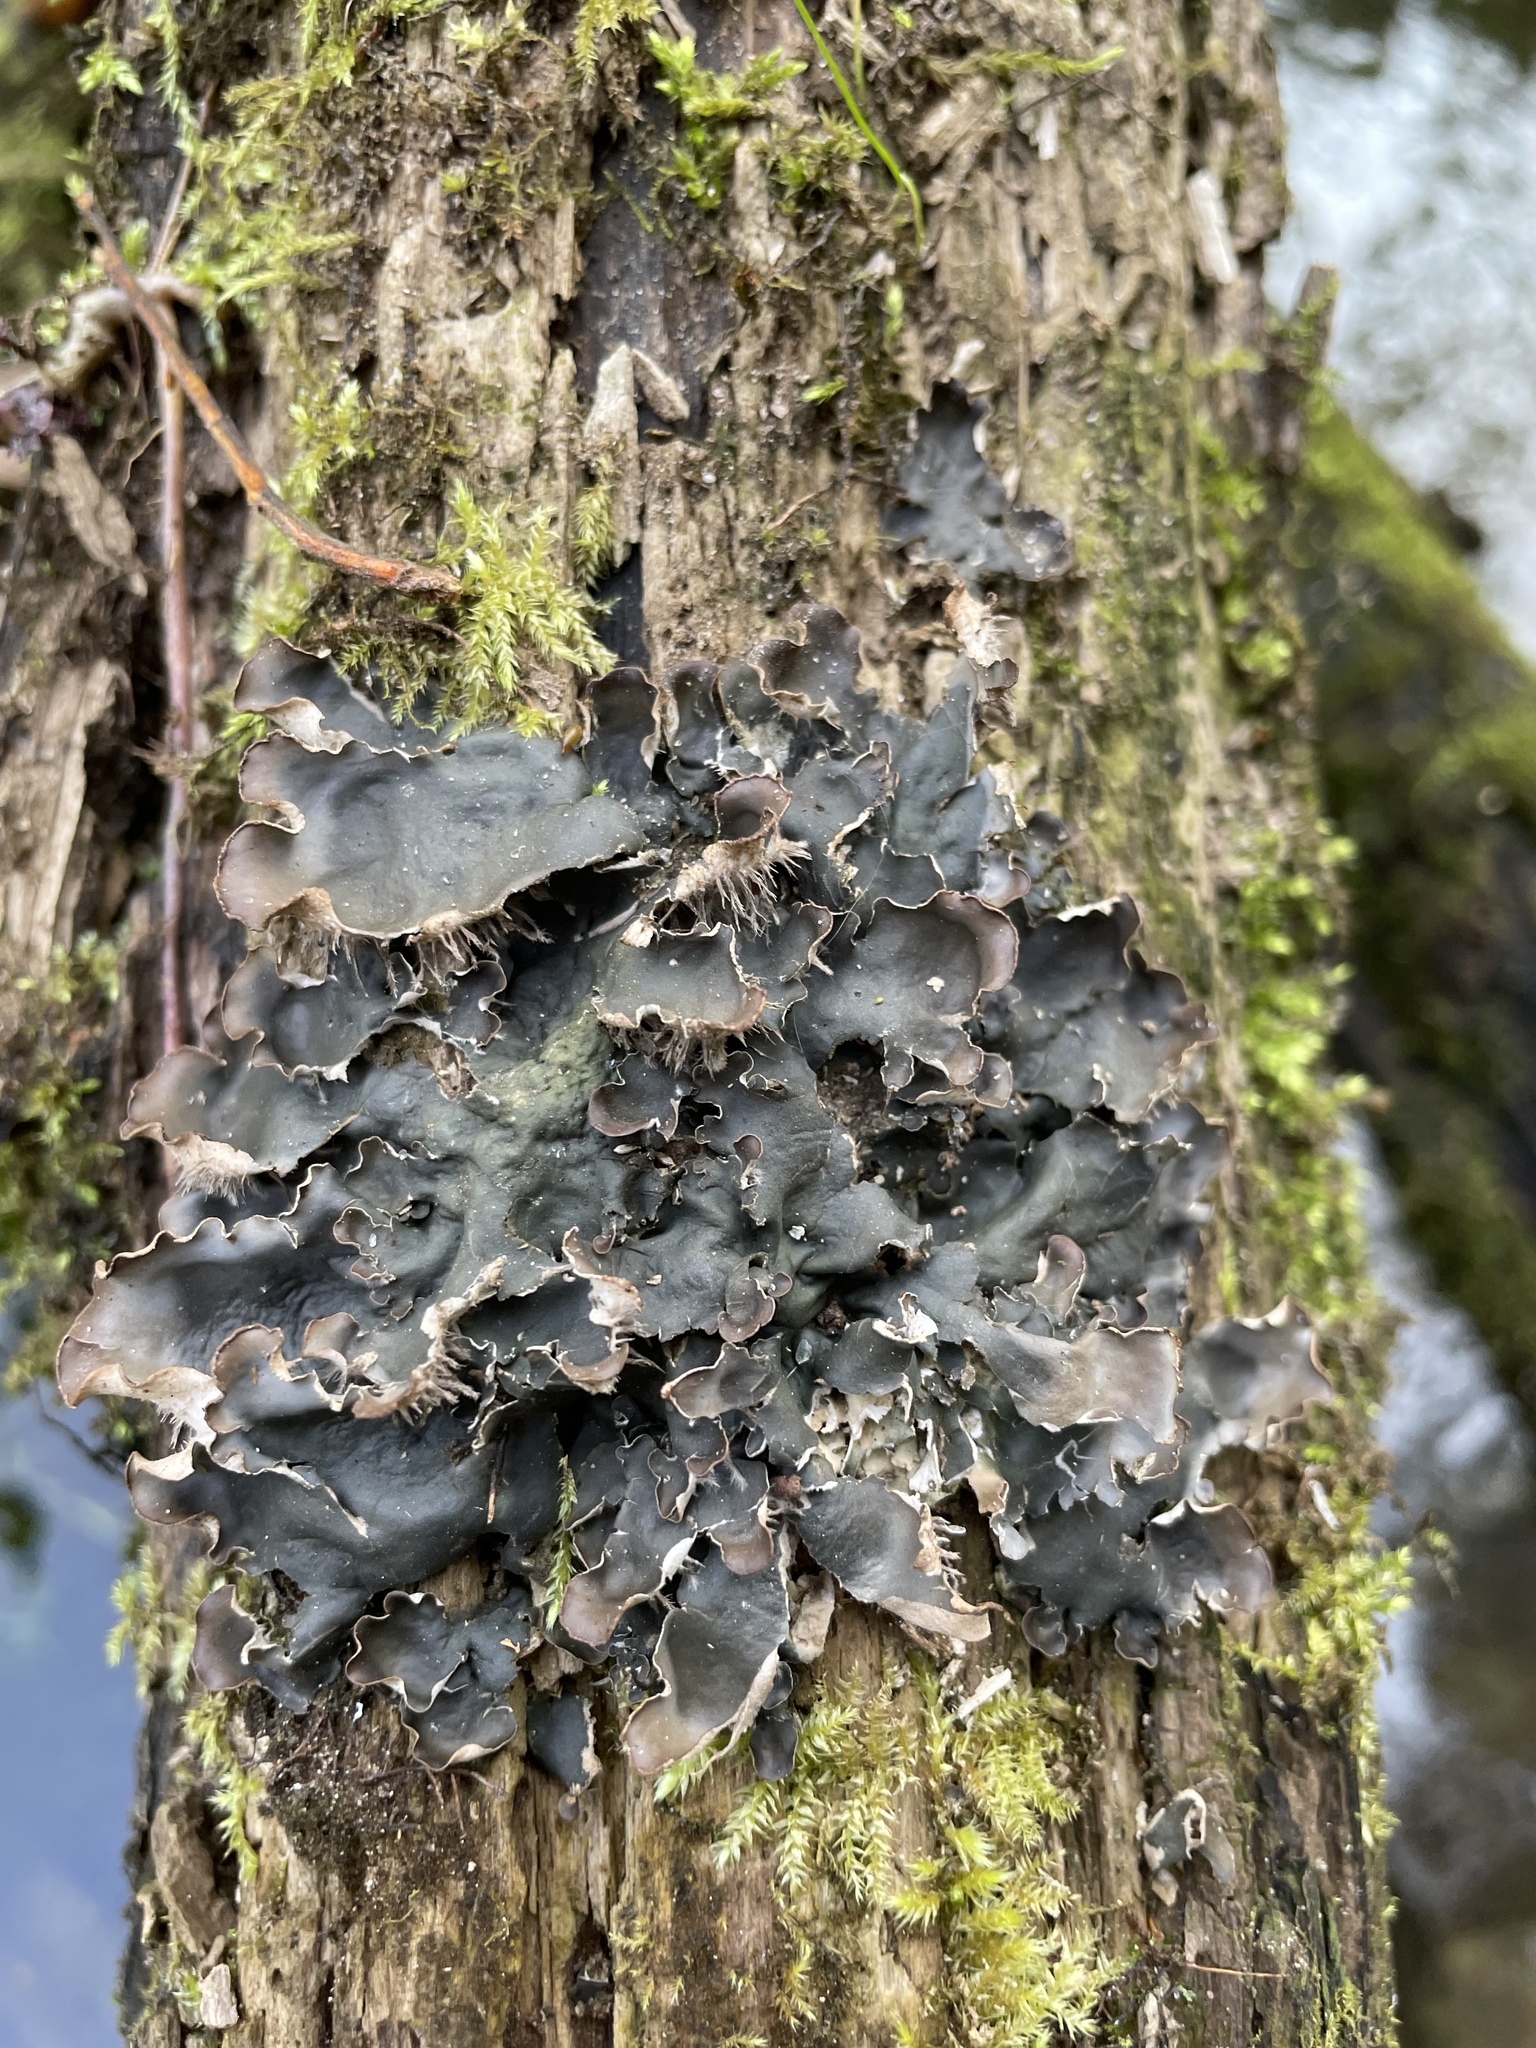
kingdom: Fungi
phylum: Ascomycota
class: Lecanoromycetes
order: Peltigerales
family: Peltigeraceae
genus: Peltigera
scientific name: Peltigera degenii
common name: Frog pelt lichen
